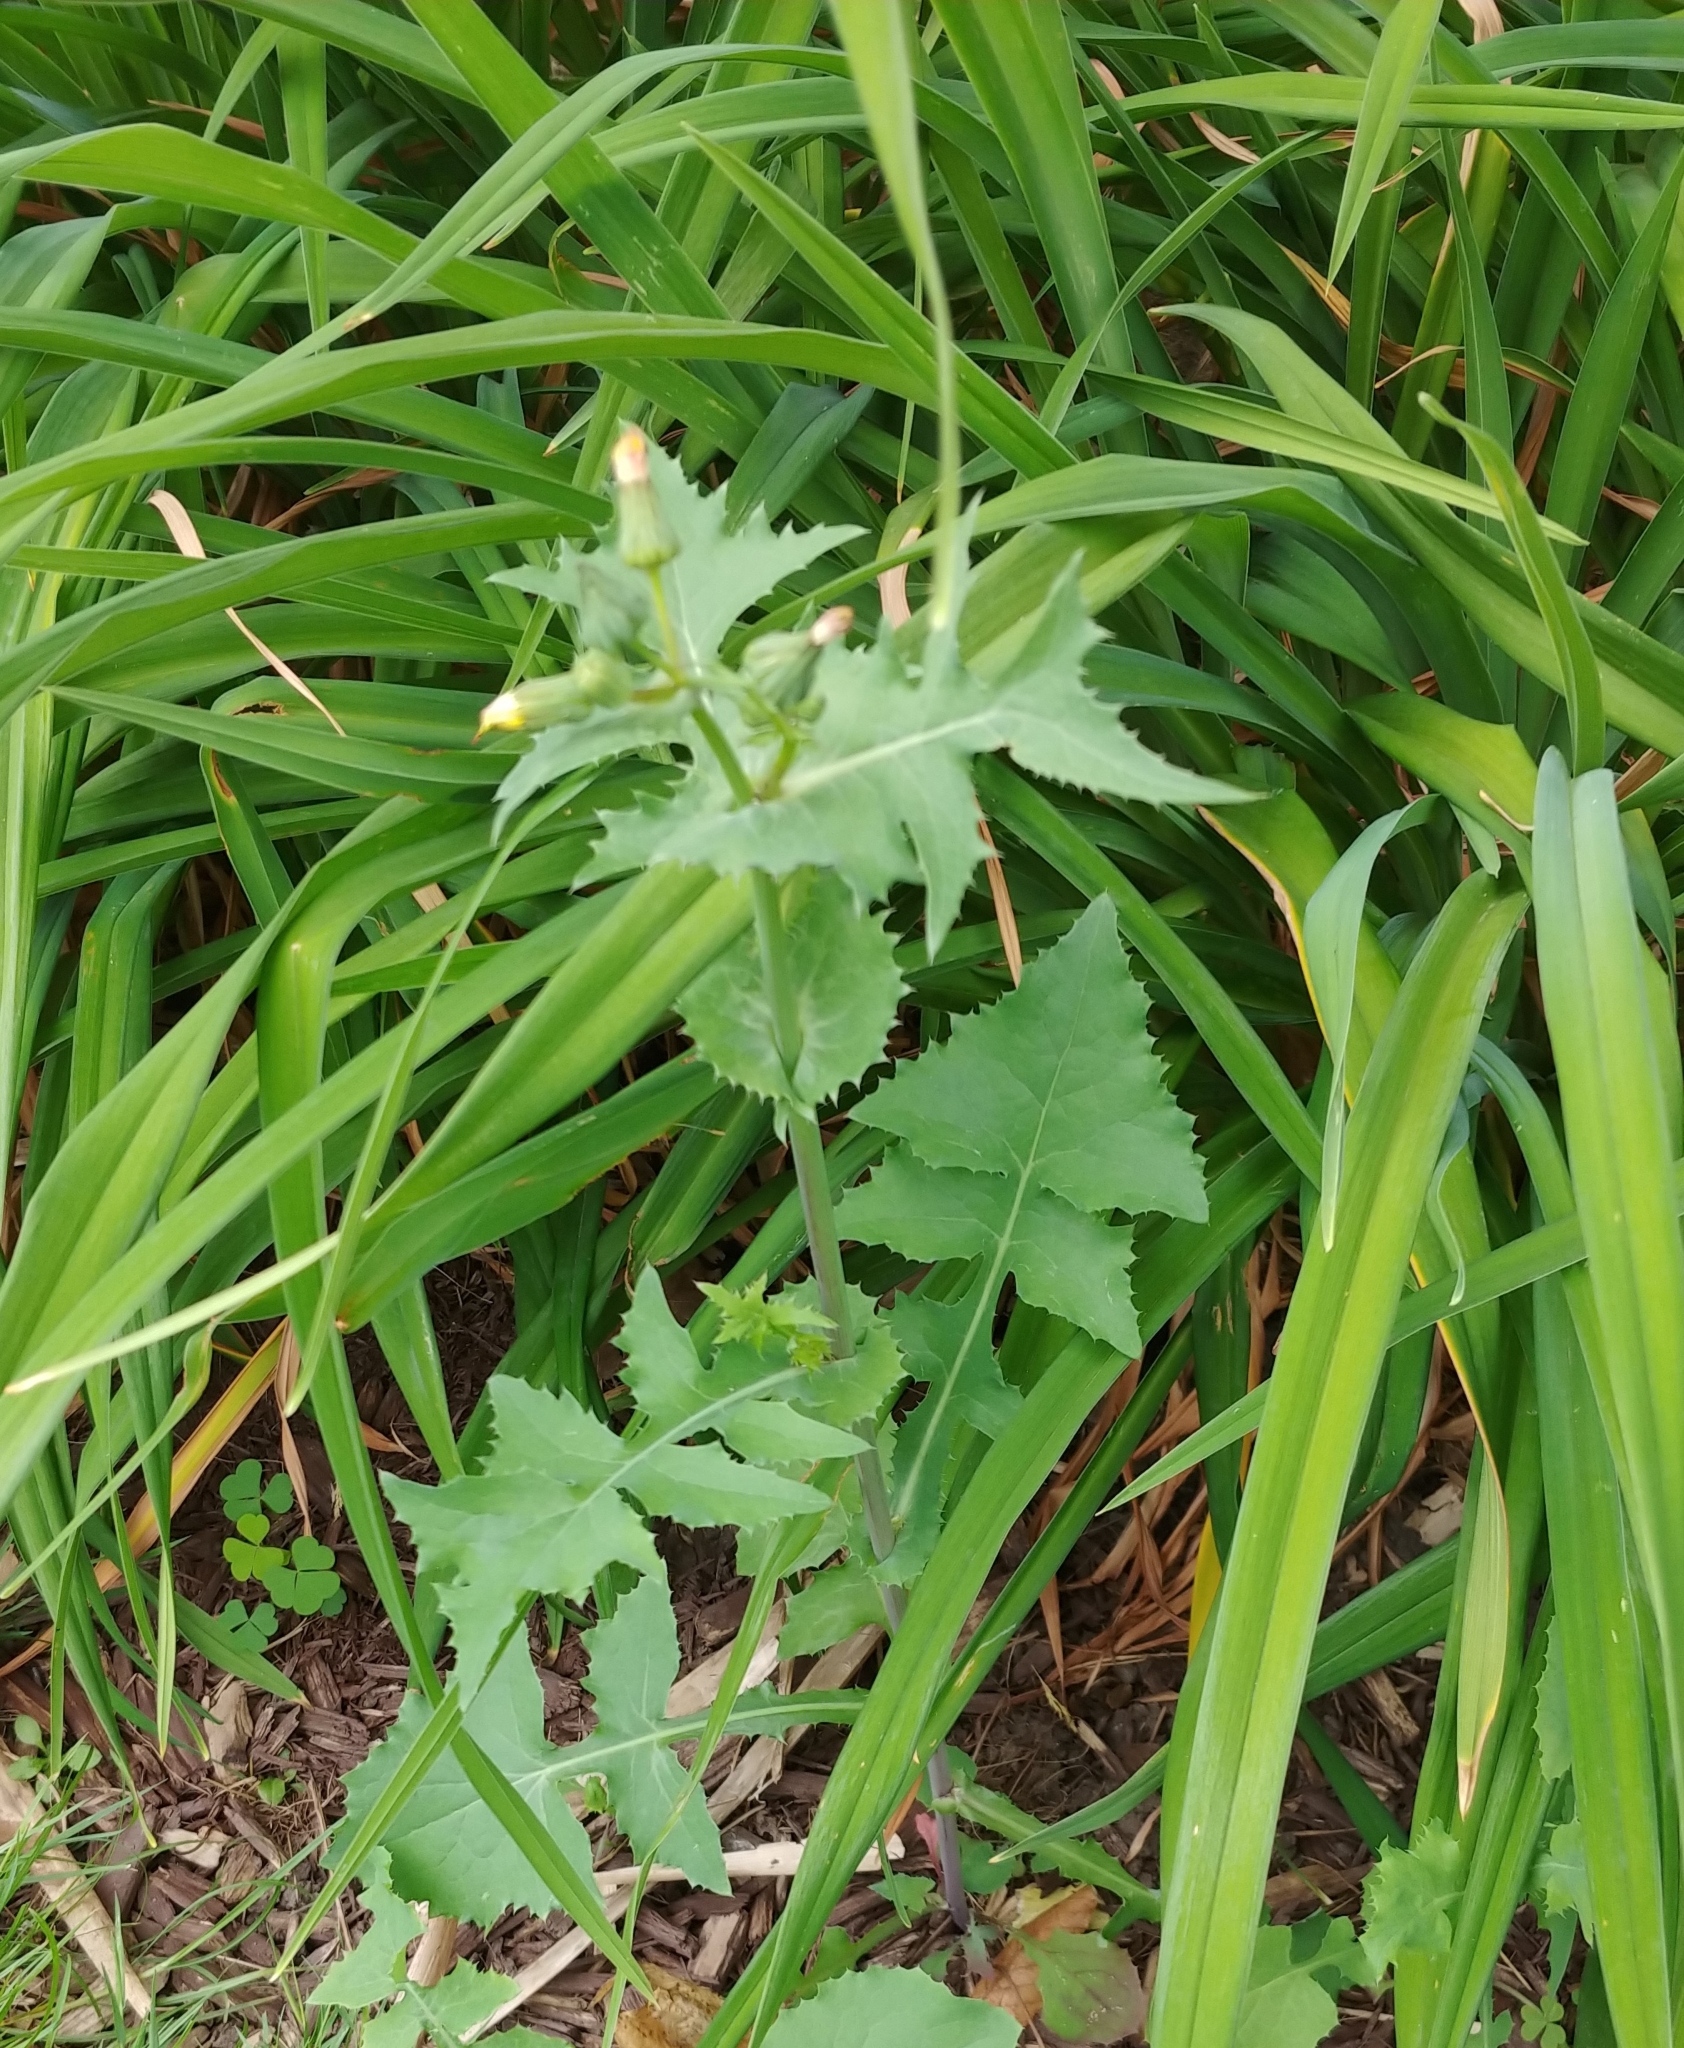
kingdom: Plantae
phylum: Tracheophyta
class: Magnoliopsida
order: Asterales
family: Asteraceae
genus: Sonchus
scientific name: Sonchus oleraceus
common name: Common sowthistle
